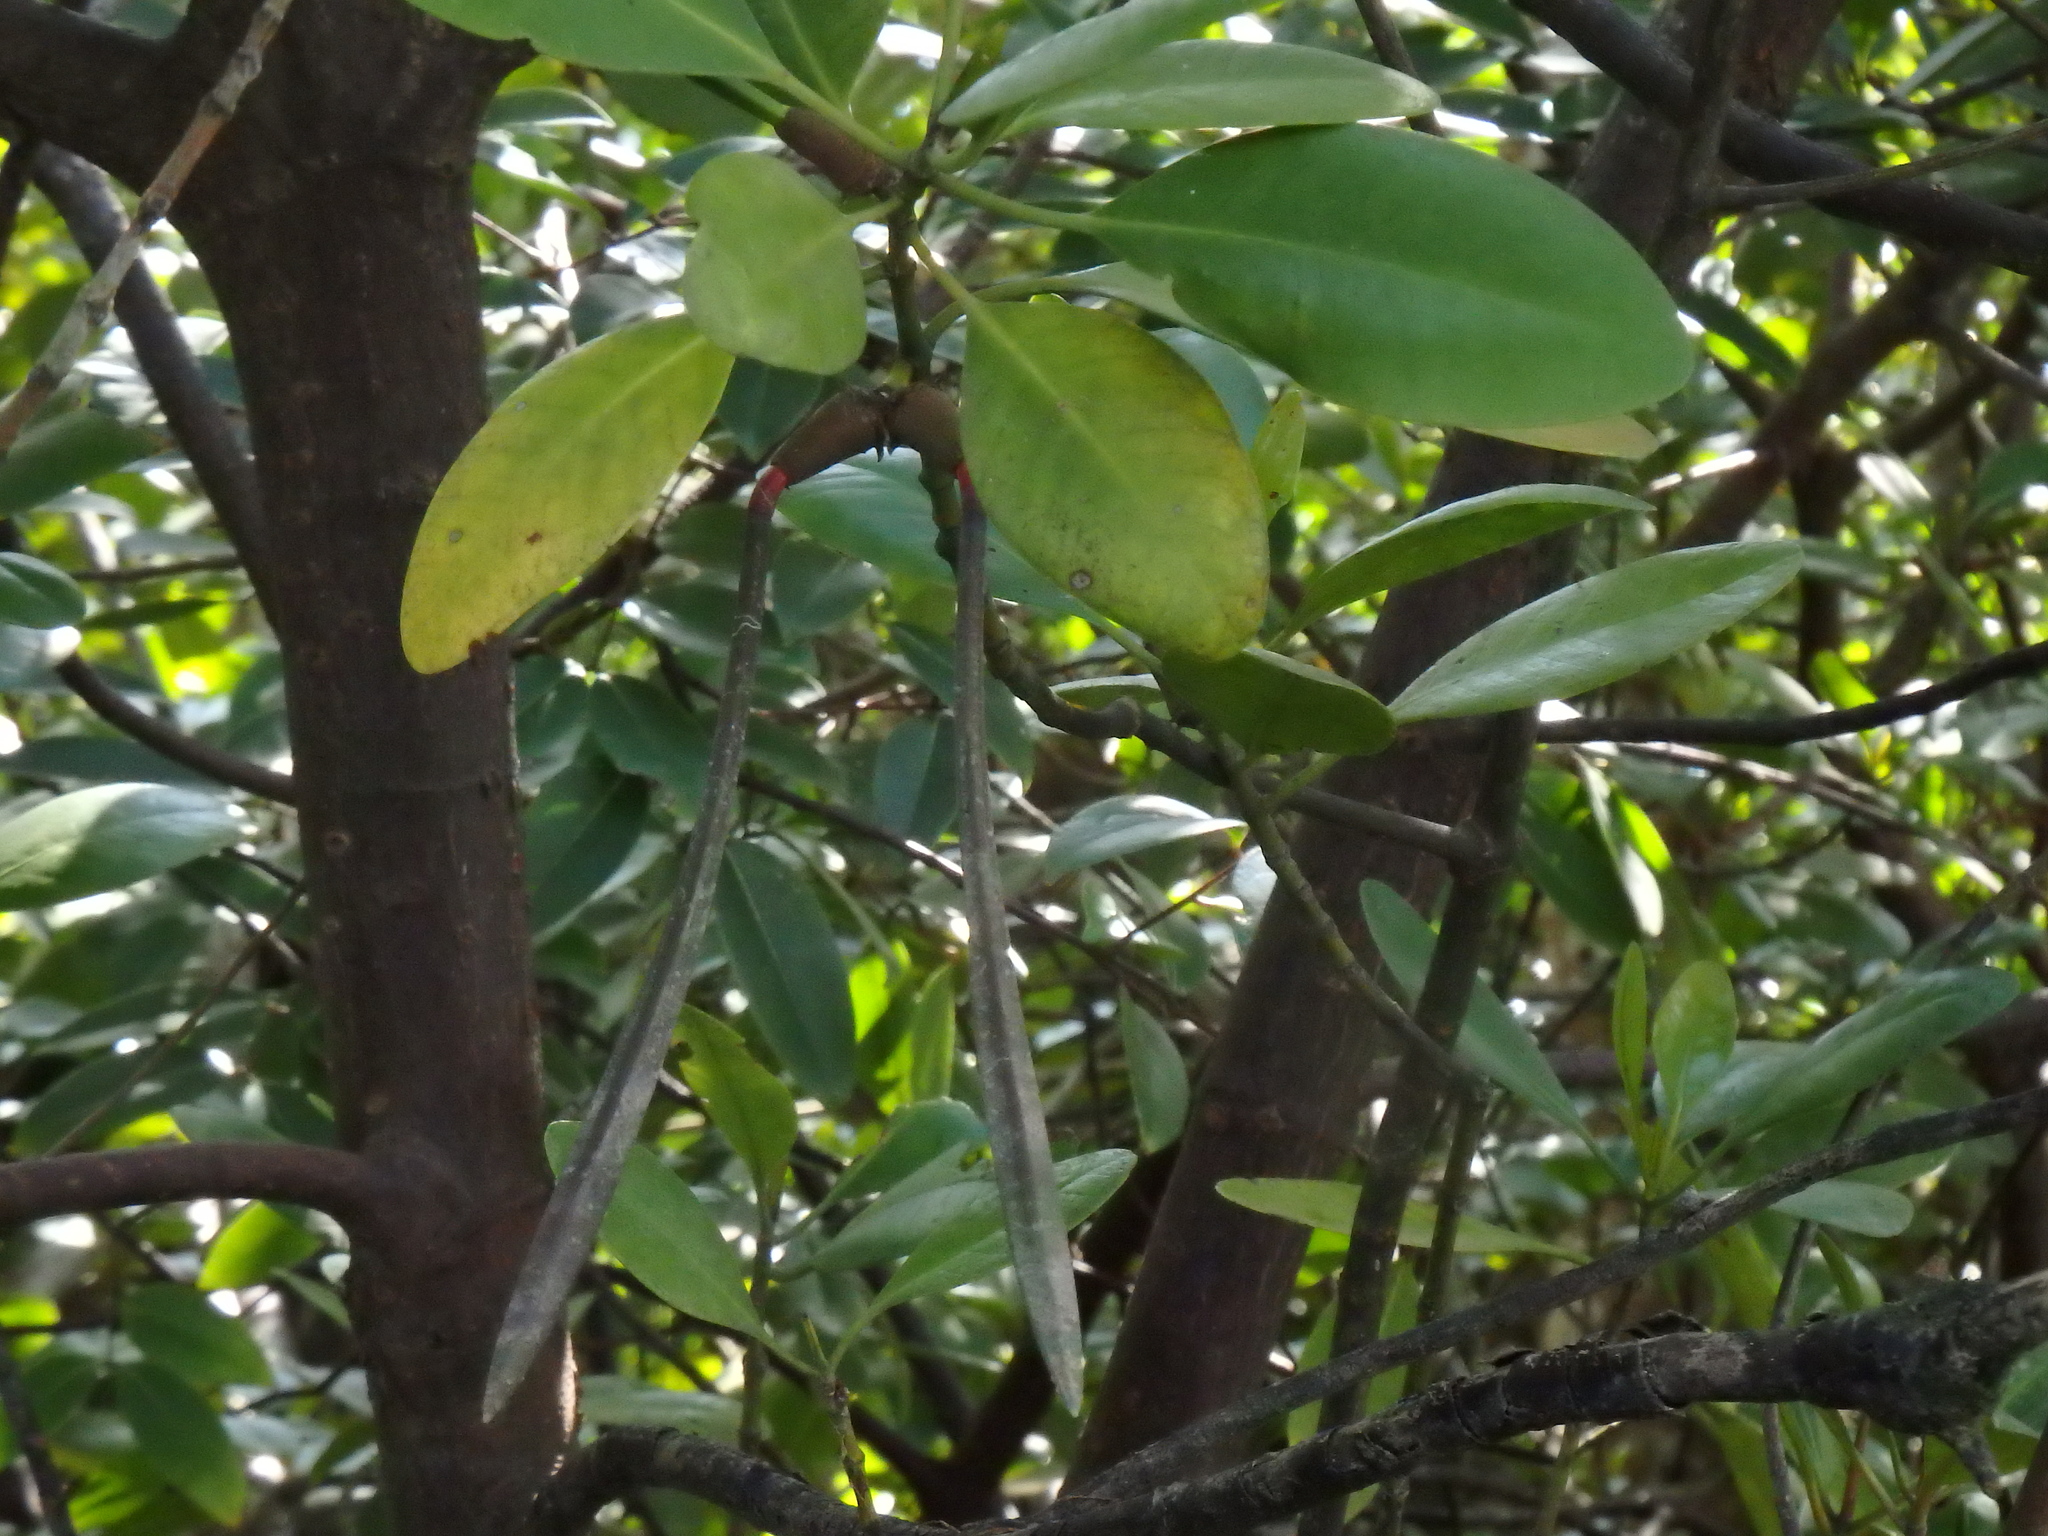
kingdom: Plantae
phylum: Tracheophyta
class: Magnoliopsida
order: Malpighiales
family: Rhizophoraceae
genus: Ceriops
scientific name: Ceriops zippeliana
